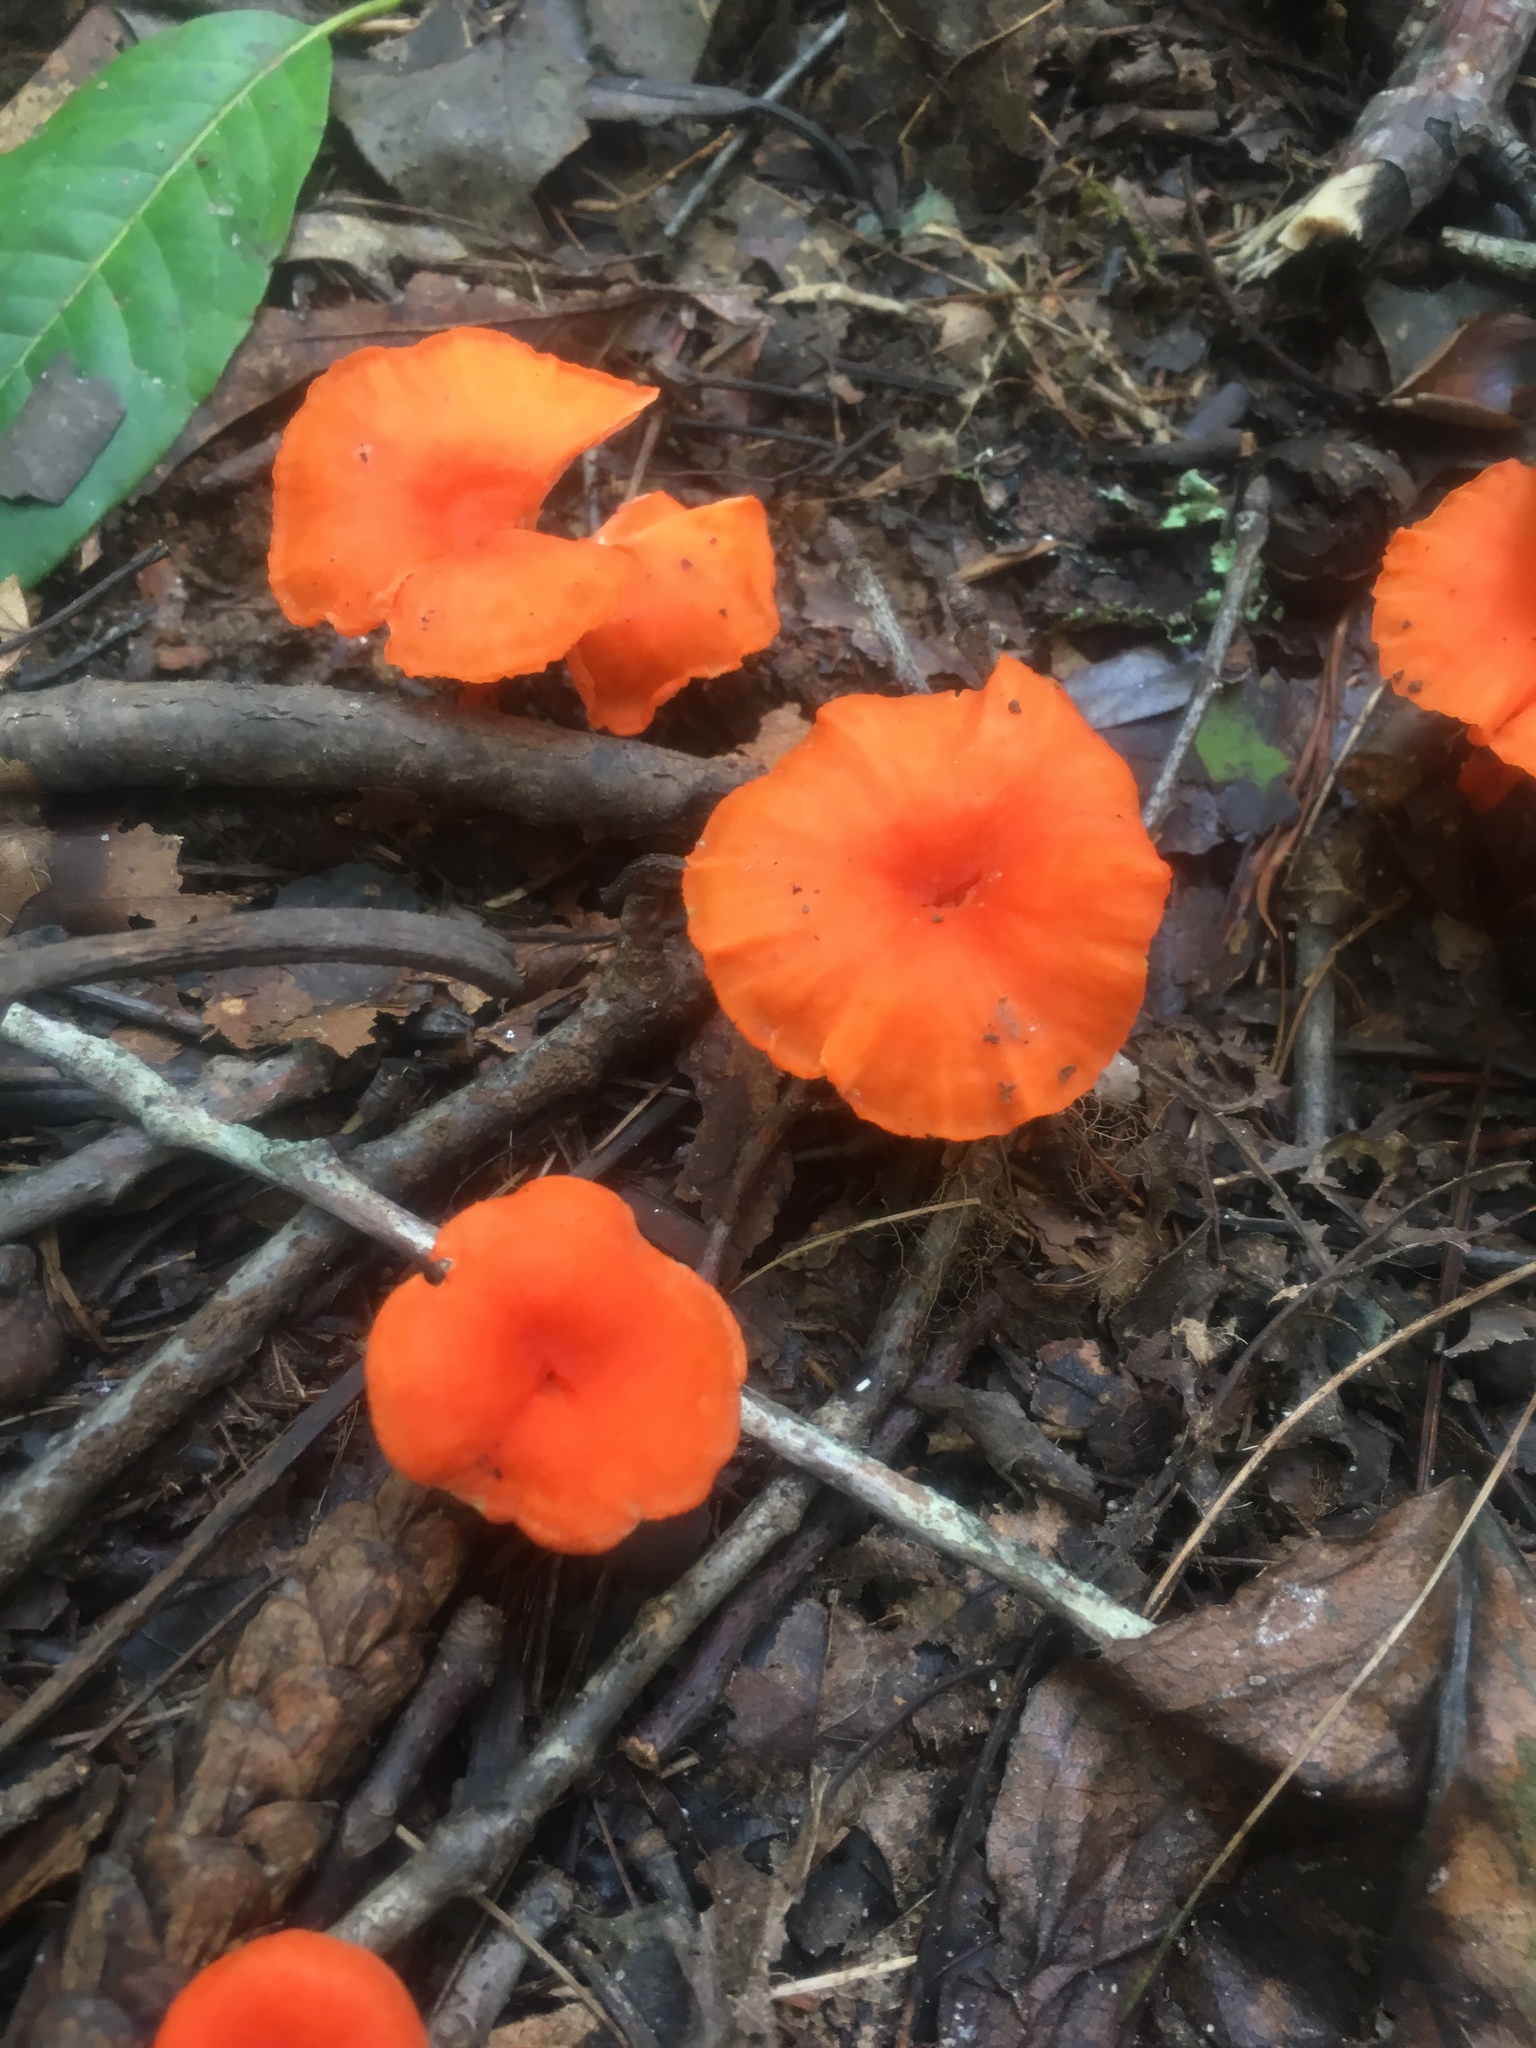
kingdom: Fungi
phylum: Basidiomycota
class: Agaricomycetes
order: Cantharellales
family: Hydnaceae
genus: Cantharellus
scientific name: Cantharellus cinnabarinus
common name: Cinnabar chanterelle
